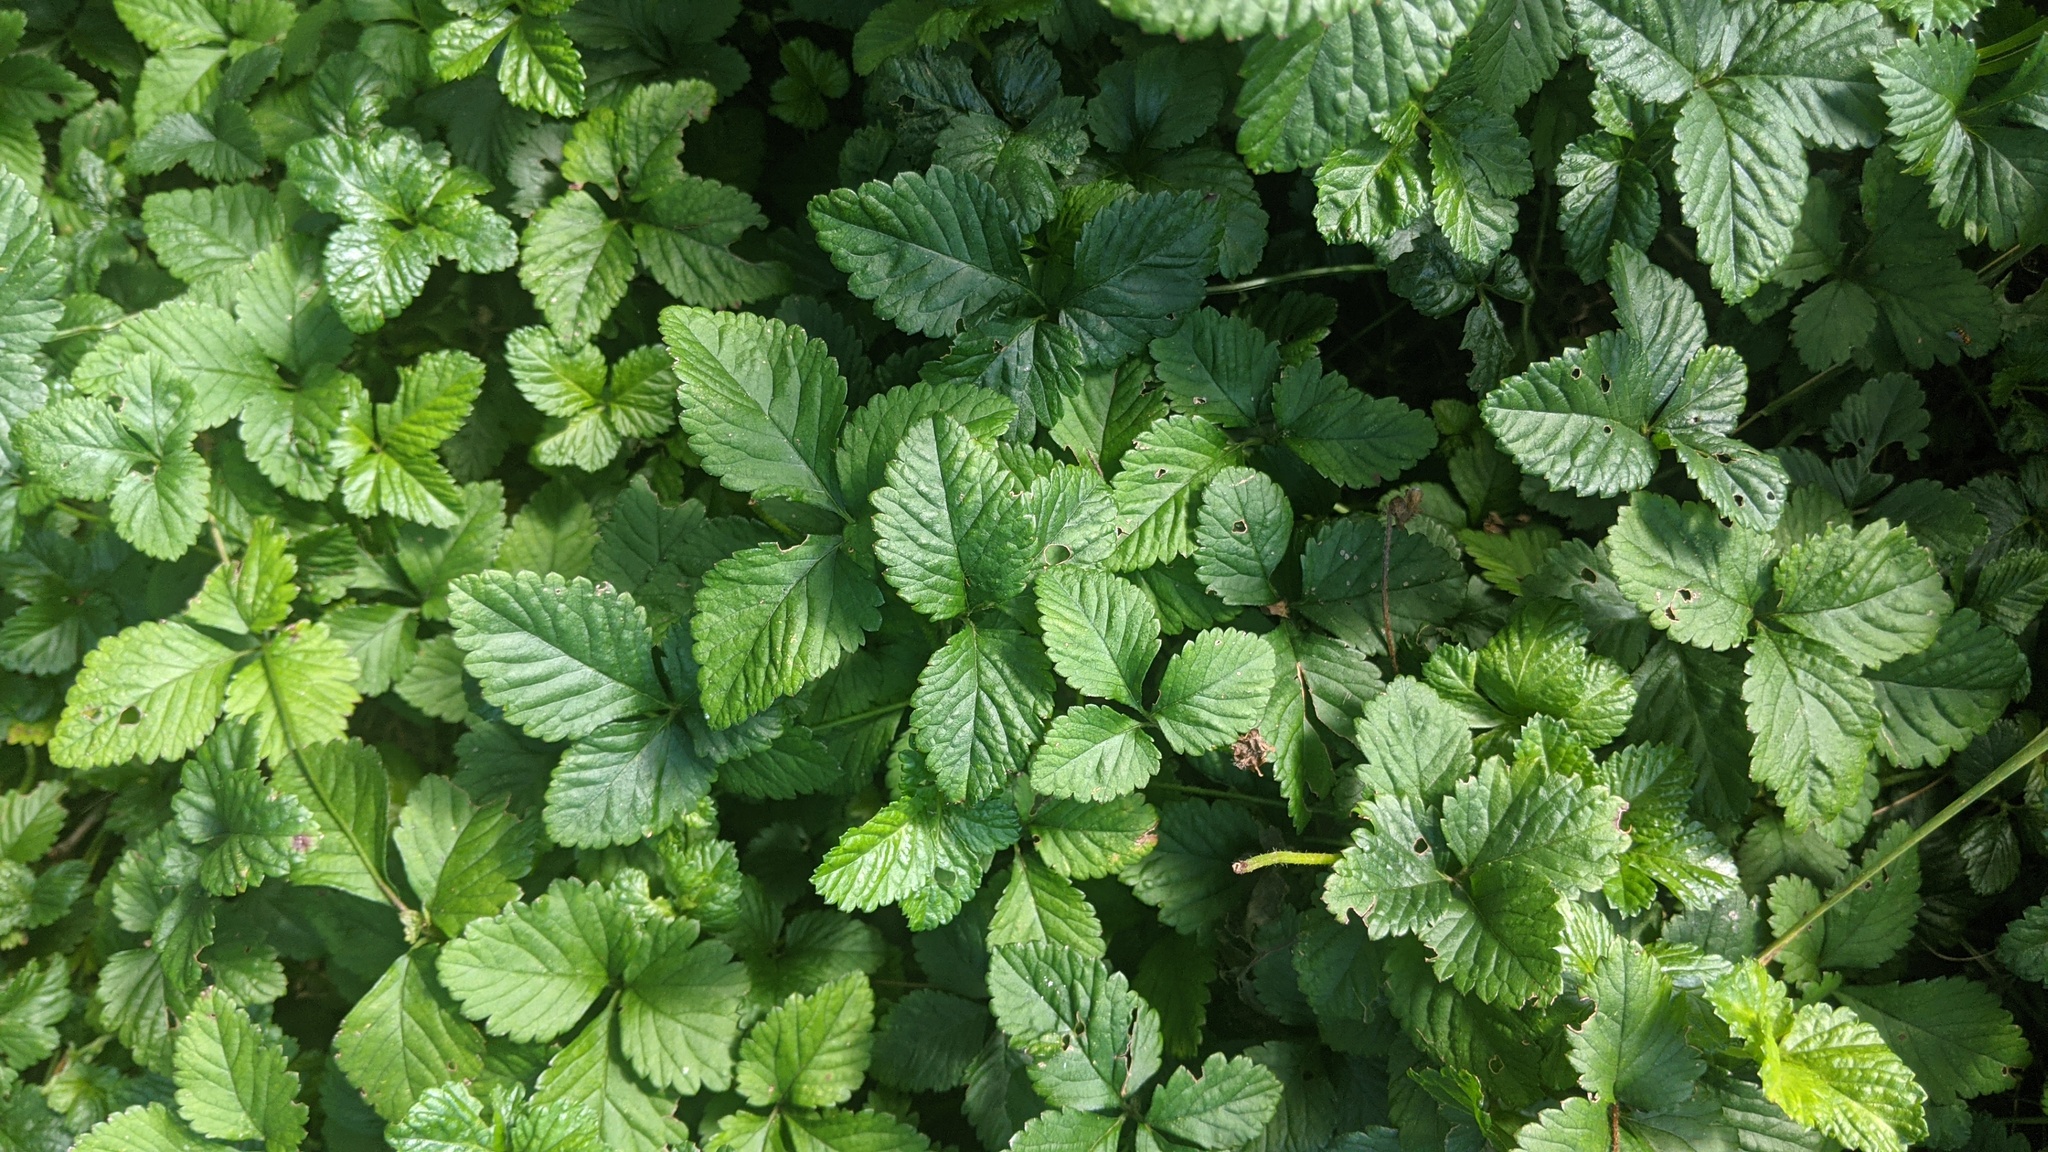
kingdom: Plantae
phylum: Tracheophyta
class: Magnoliopsida
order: Rosales
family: Rosaceae
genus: Potentilla
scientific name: Potentilla indica
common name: Yellow-flowered strawberry
